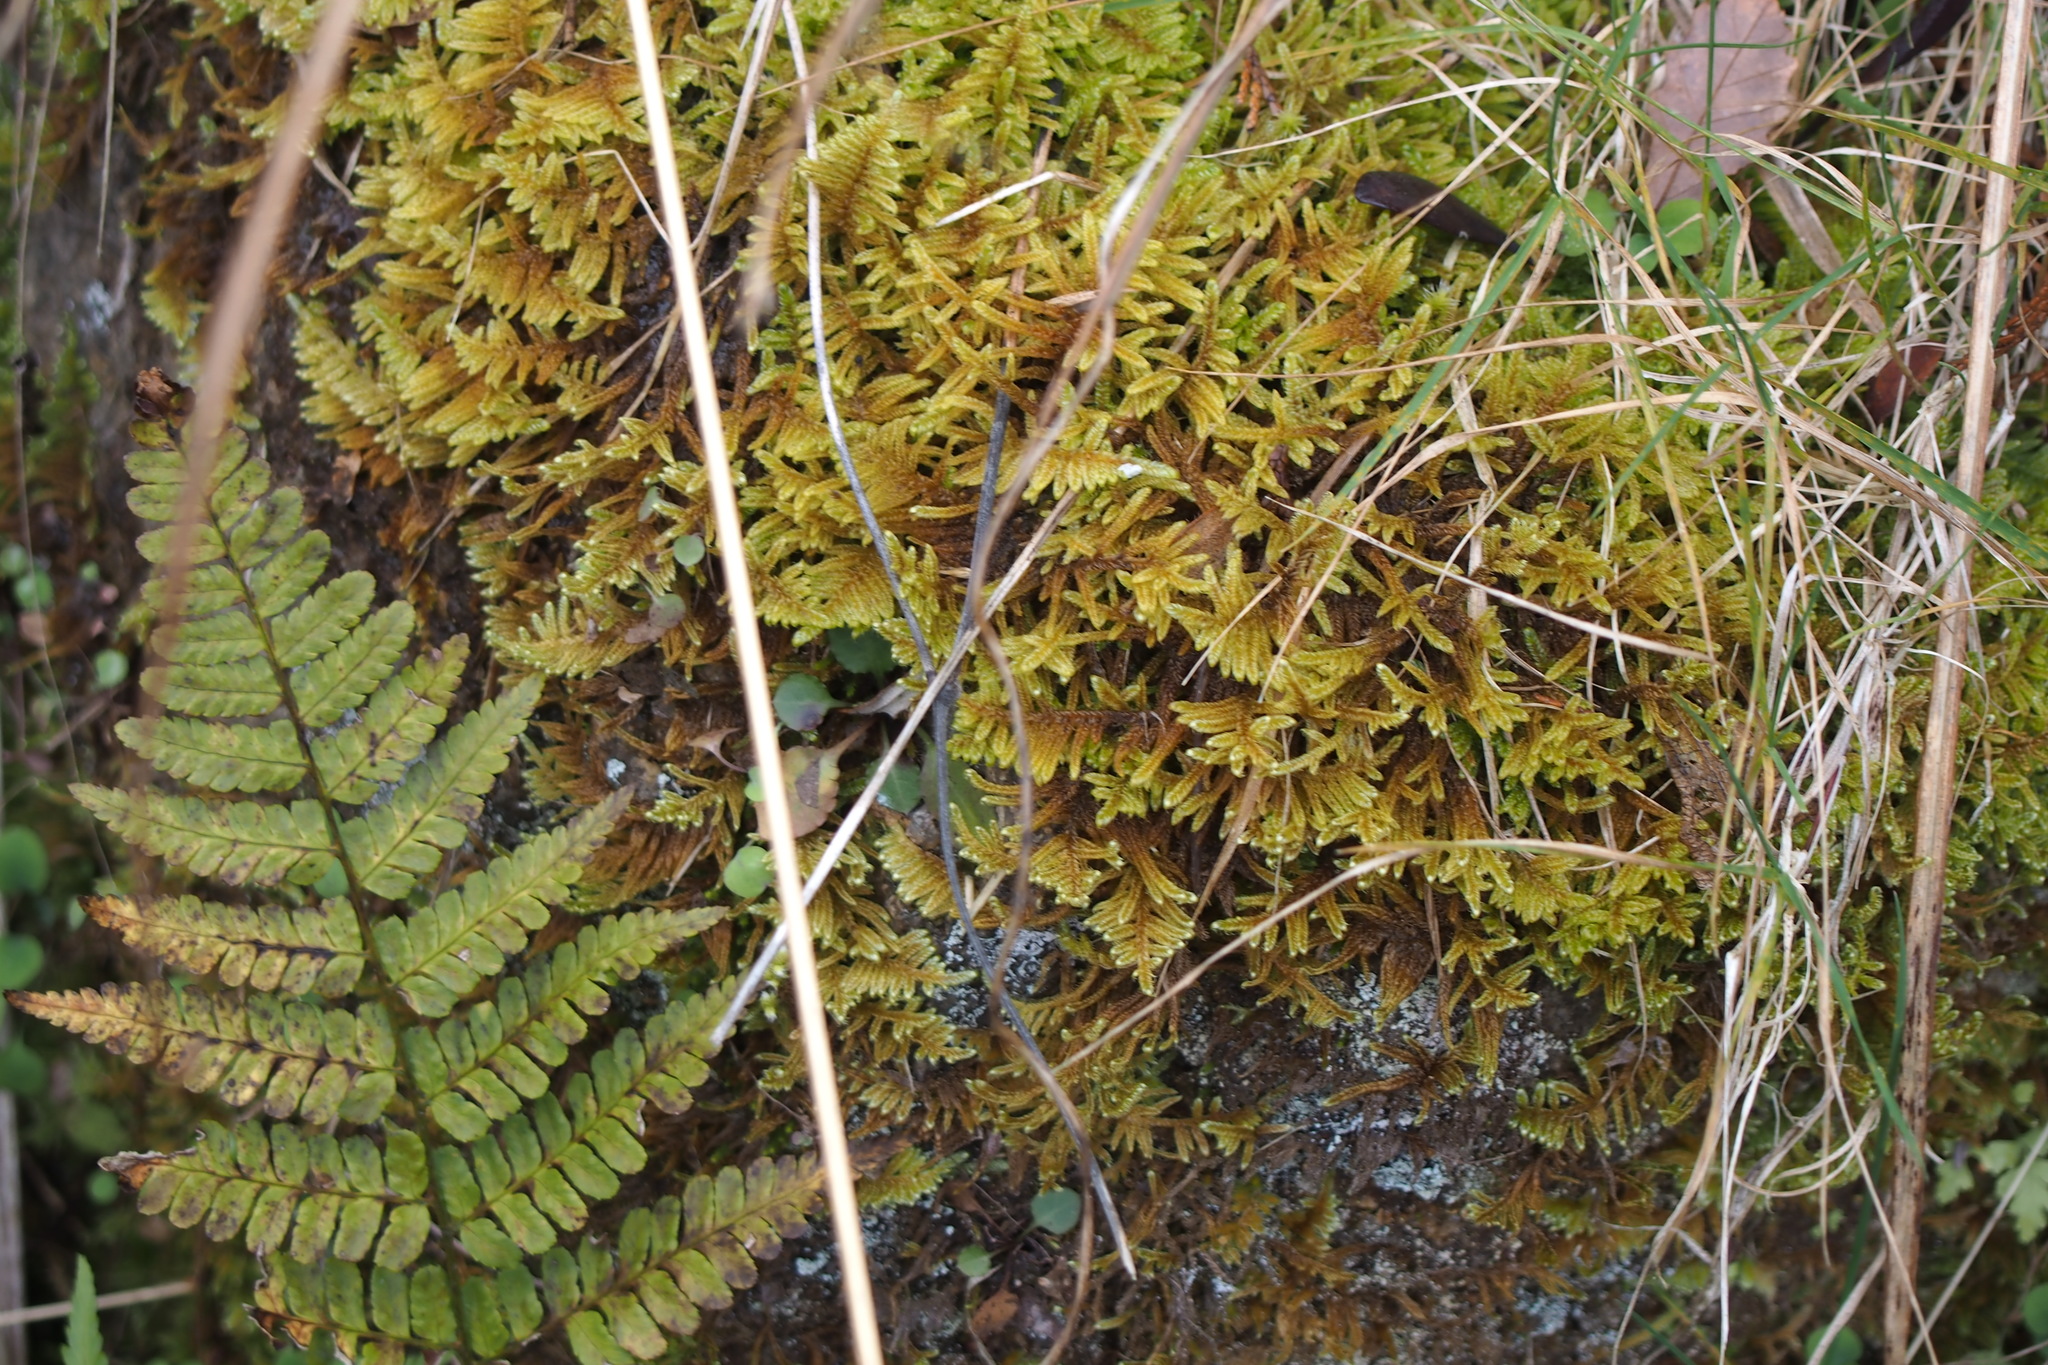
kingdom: Plantae
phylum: Bryophyta
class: Bryopsida
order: Hypnales
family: Hypnaceae
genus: Hypnum
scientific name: Hypnum plumaeforme
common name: Cypress-leaved plaitmoss
